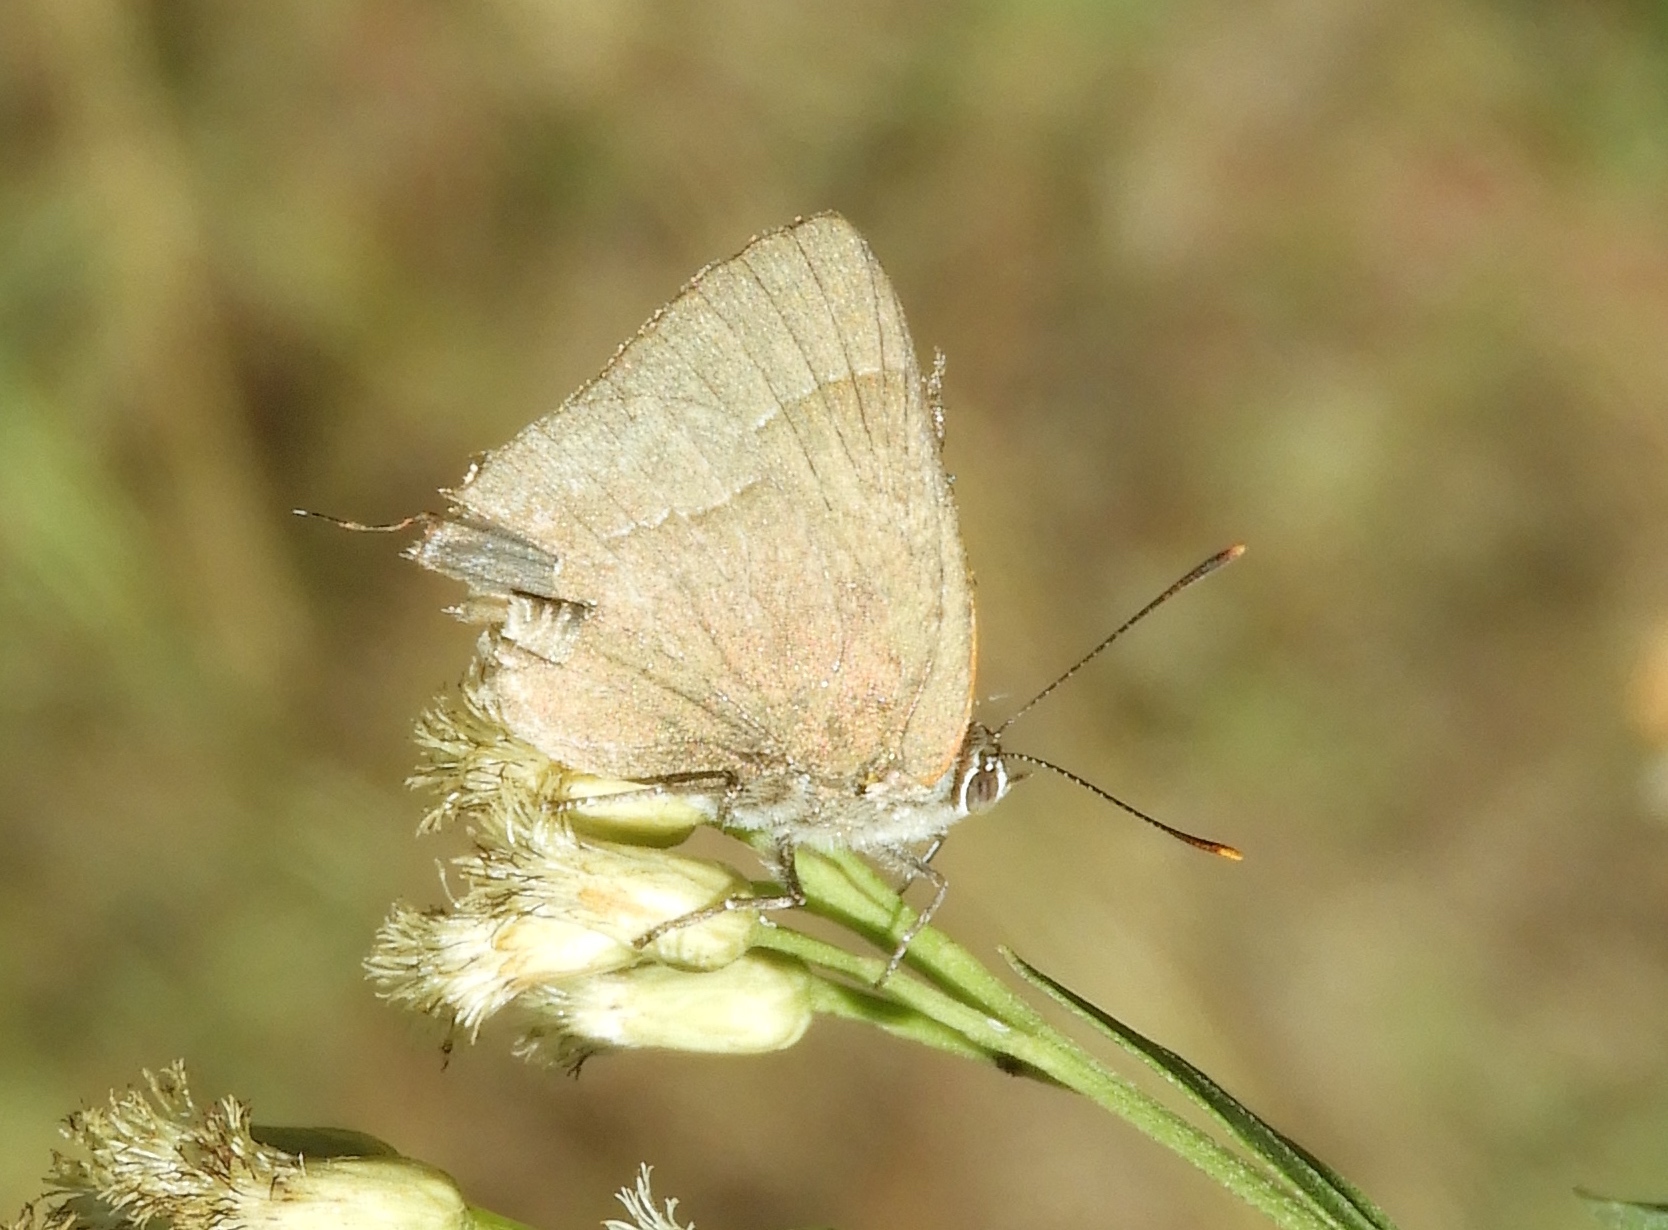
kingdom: Animalia
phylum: Arthropoda
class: Insecta
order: Lepidoptera
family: Lycaenidae
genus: Rekoa
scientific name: Rekoa
